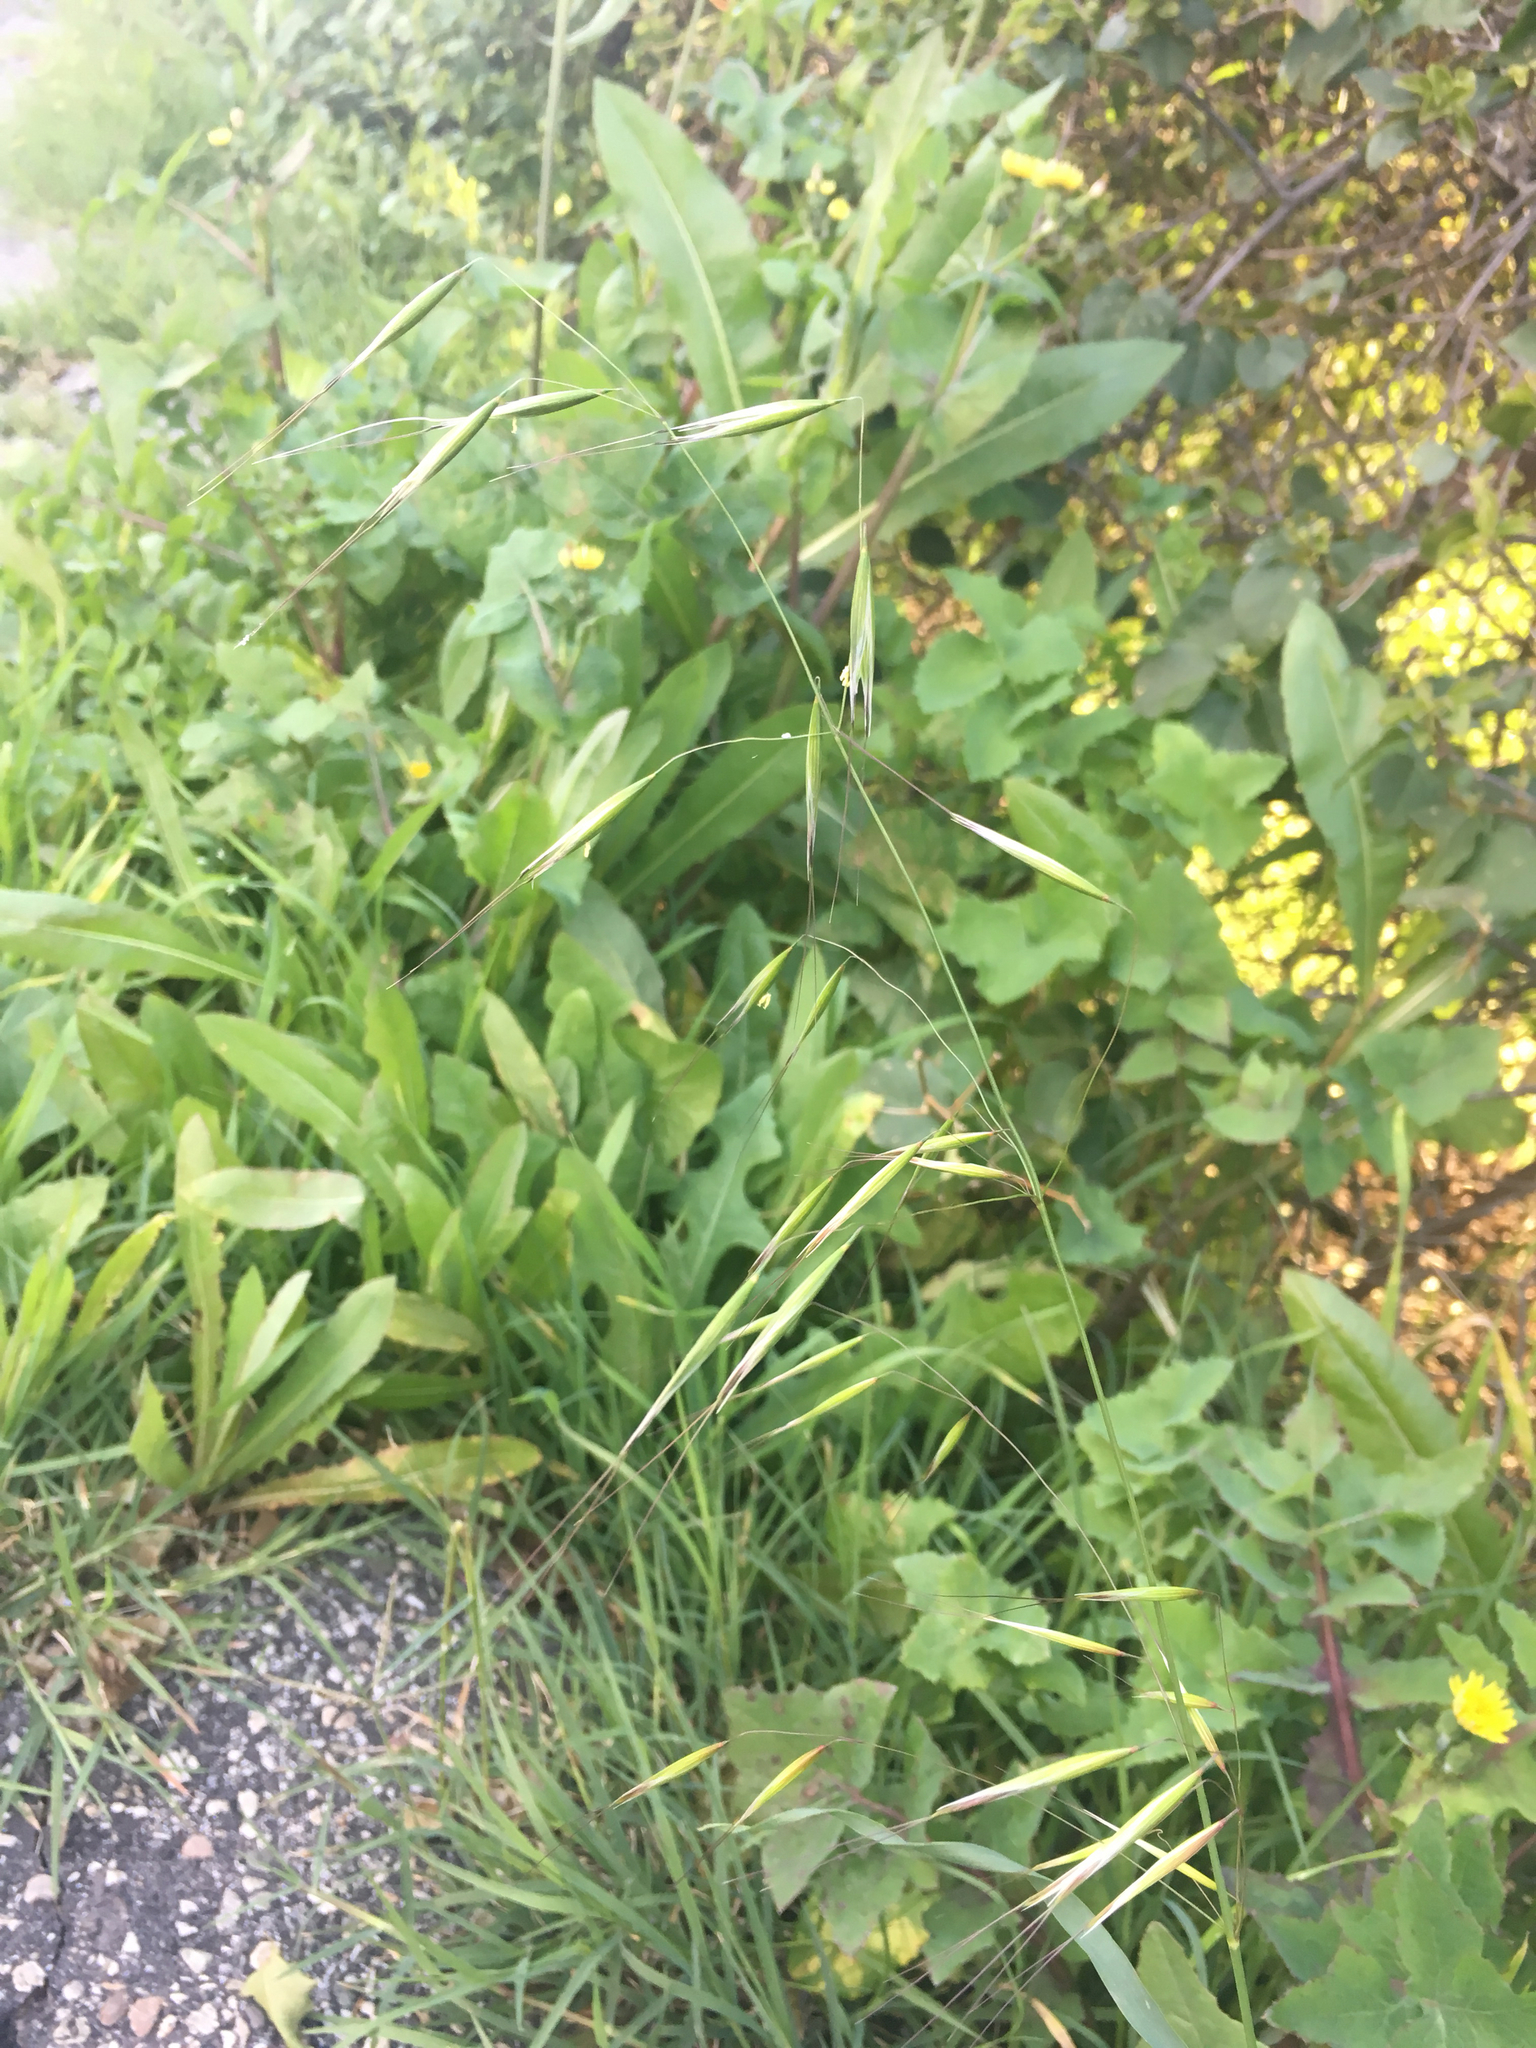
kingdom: Plantae
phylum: Tracheophyta
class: Liliopsida
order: Poales
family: Poaceae
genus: Avena
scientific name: Avena barbata
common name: Slender oat
